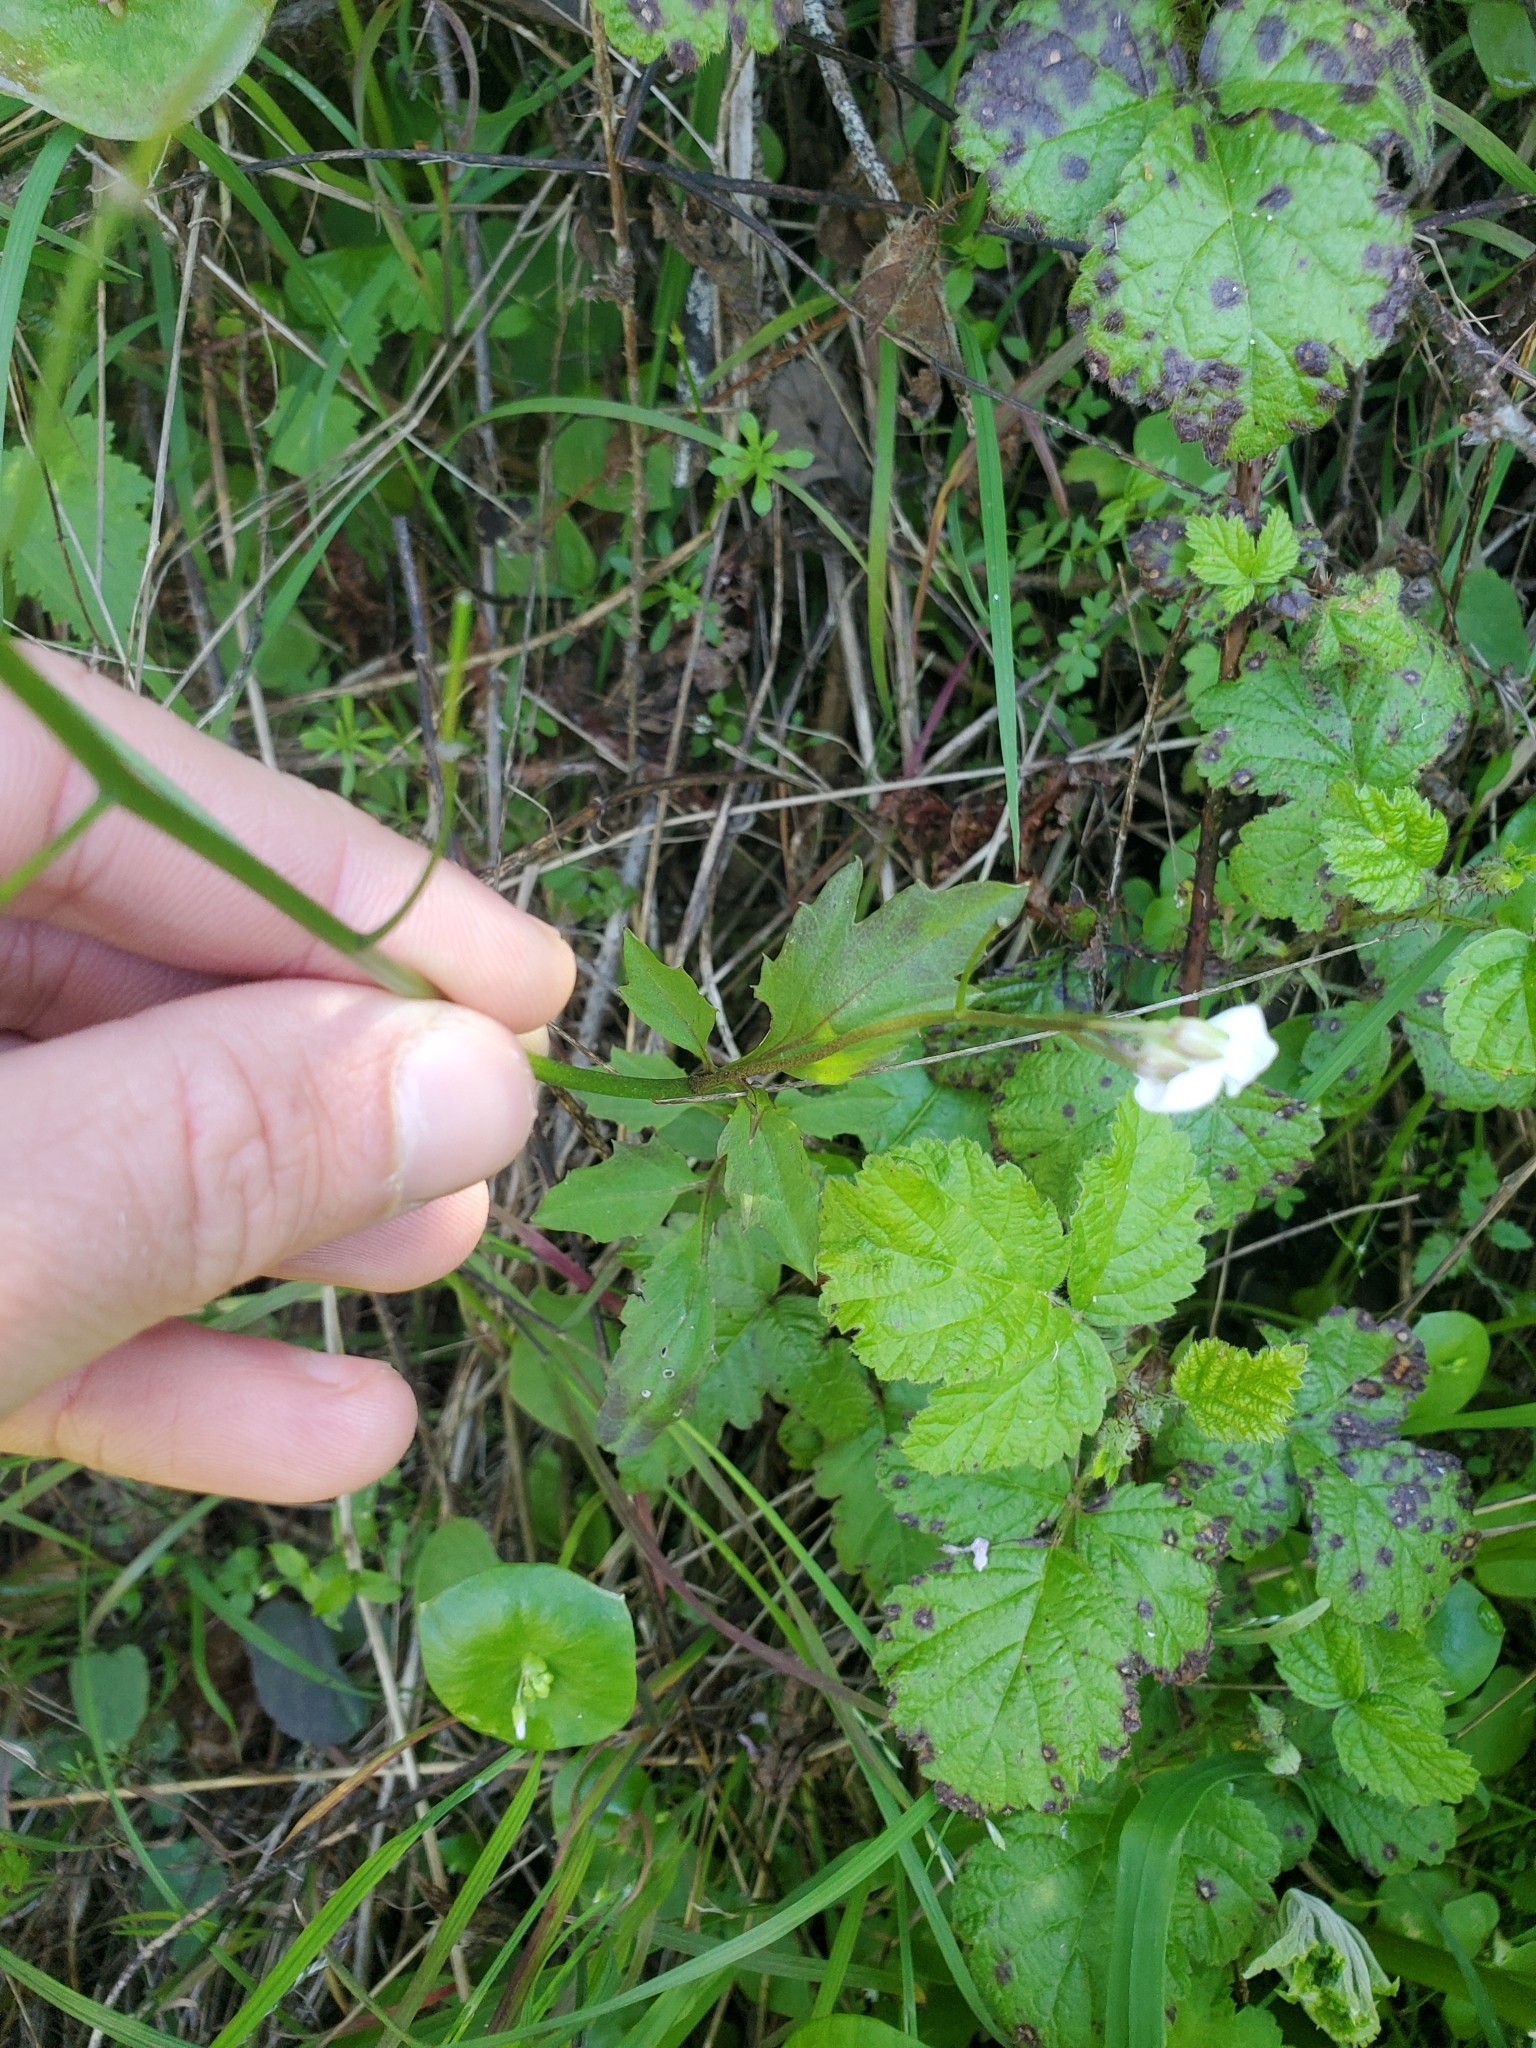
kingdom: Plantae
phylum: Tracheophyta
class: Magnoliopsida
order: Brassicales
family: Brassicaceae
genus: Cardamine
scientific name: Cardamine californica
